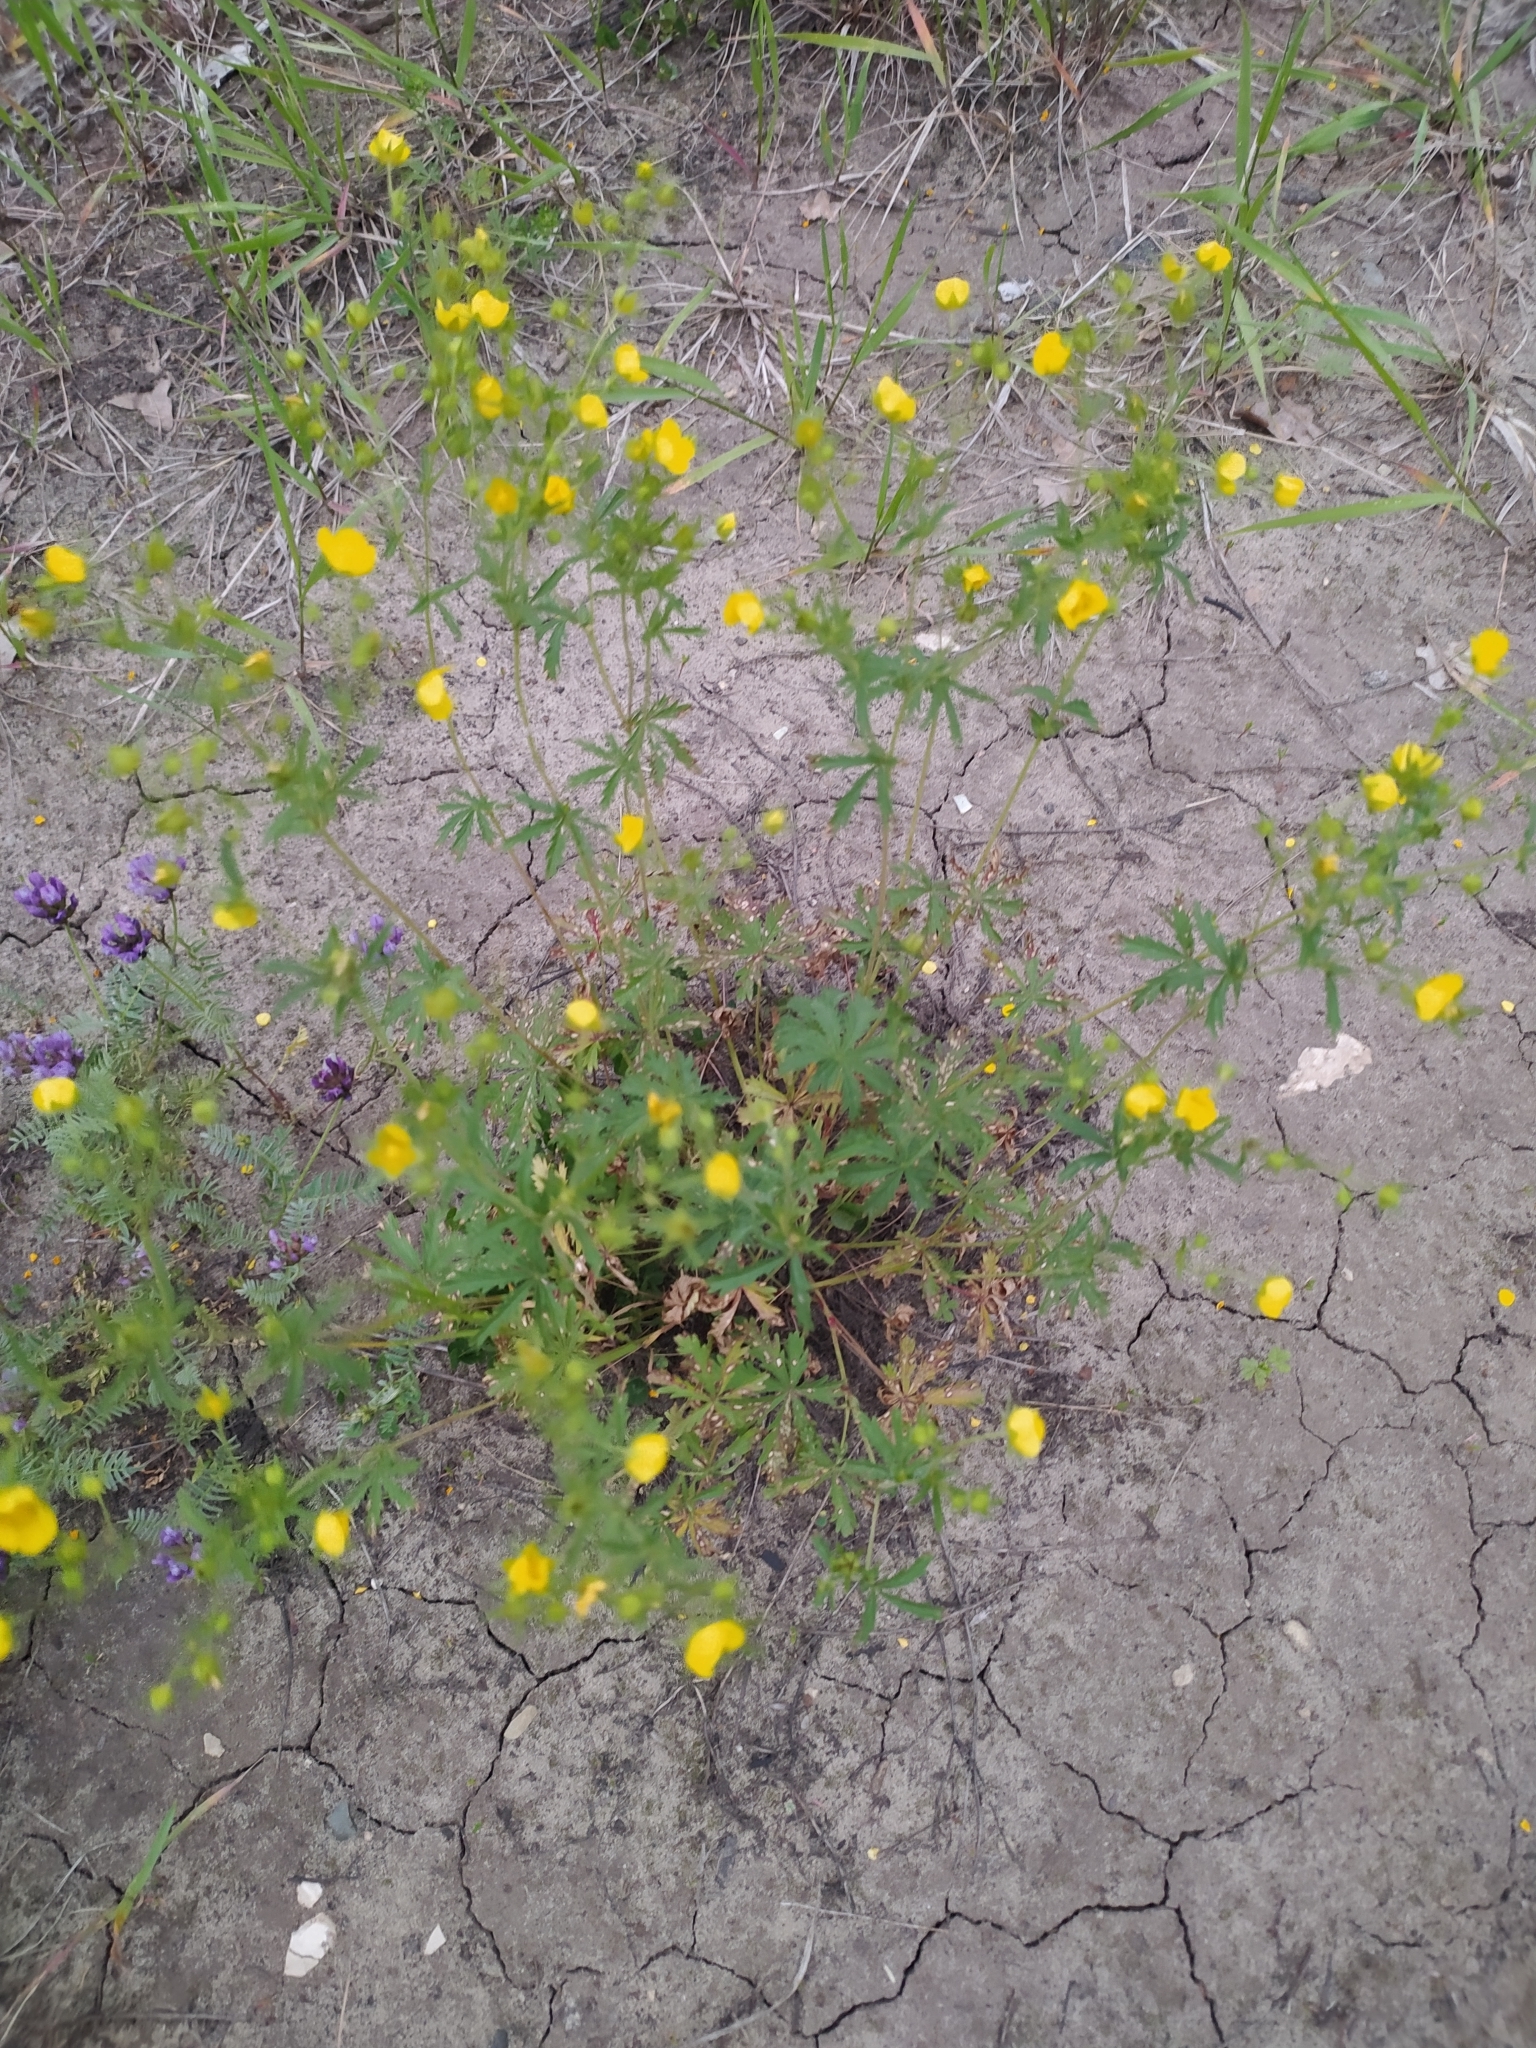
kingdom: Plantae
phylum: Tracheophyta
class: Magnoliopsida
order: Rosales
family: Rosaceae
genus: Potentilla
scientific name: Potentilla thuringiaca
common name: European cinquefoil
